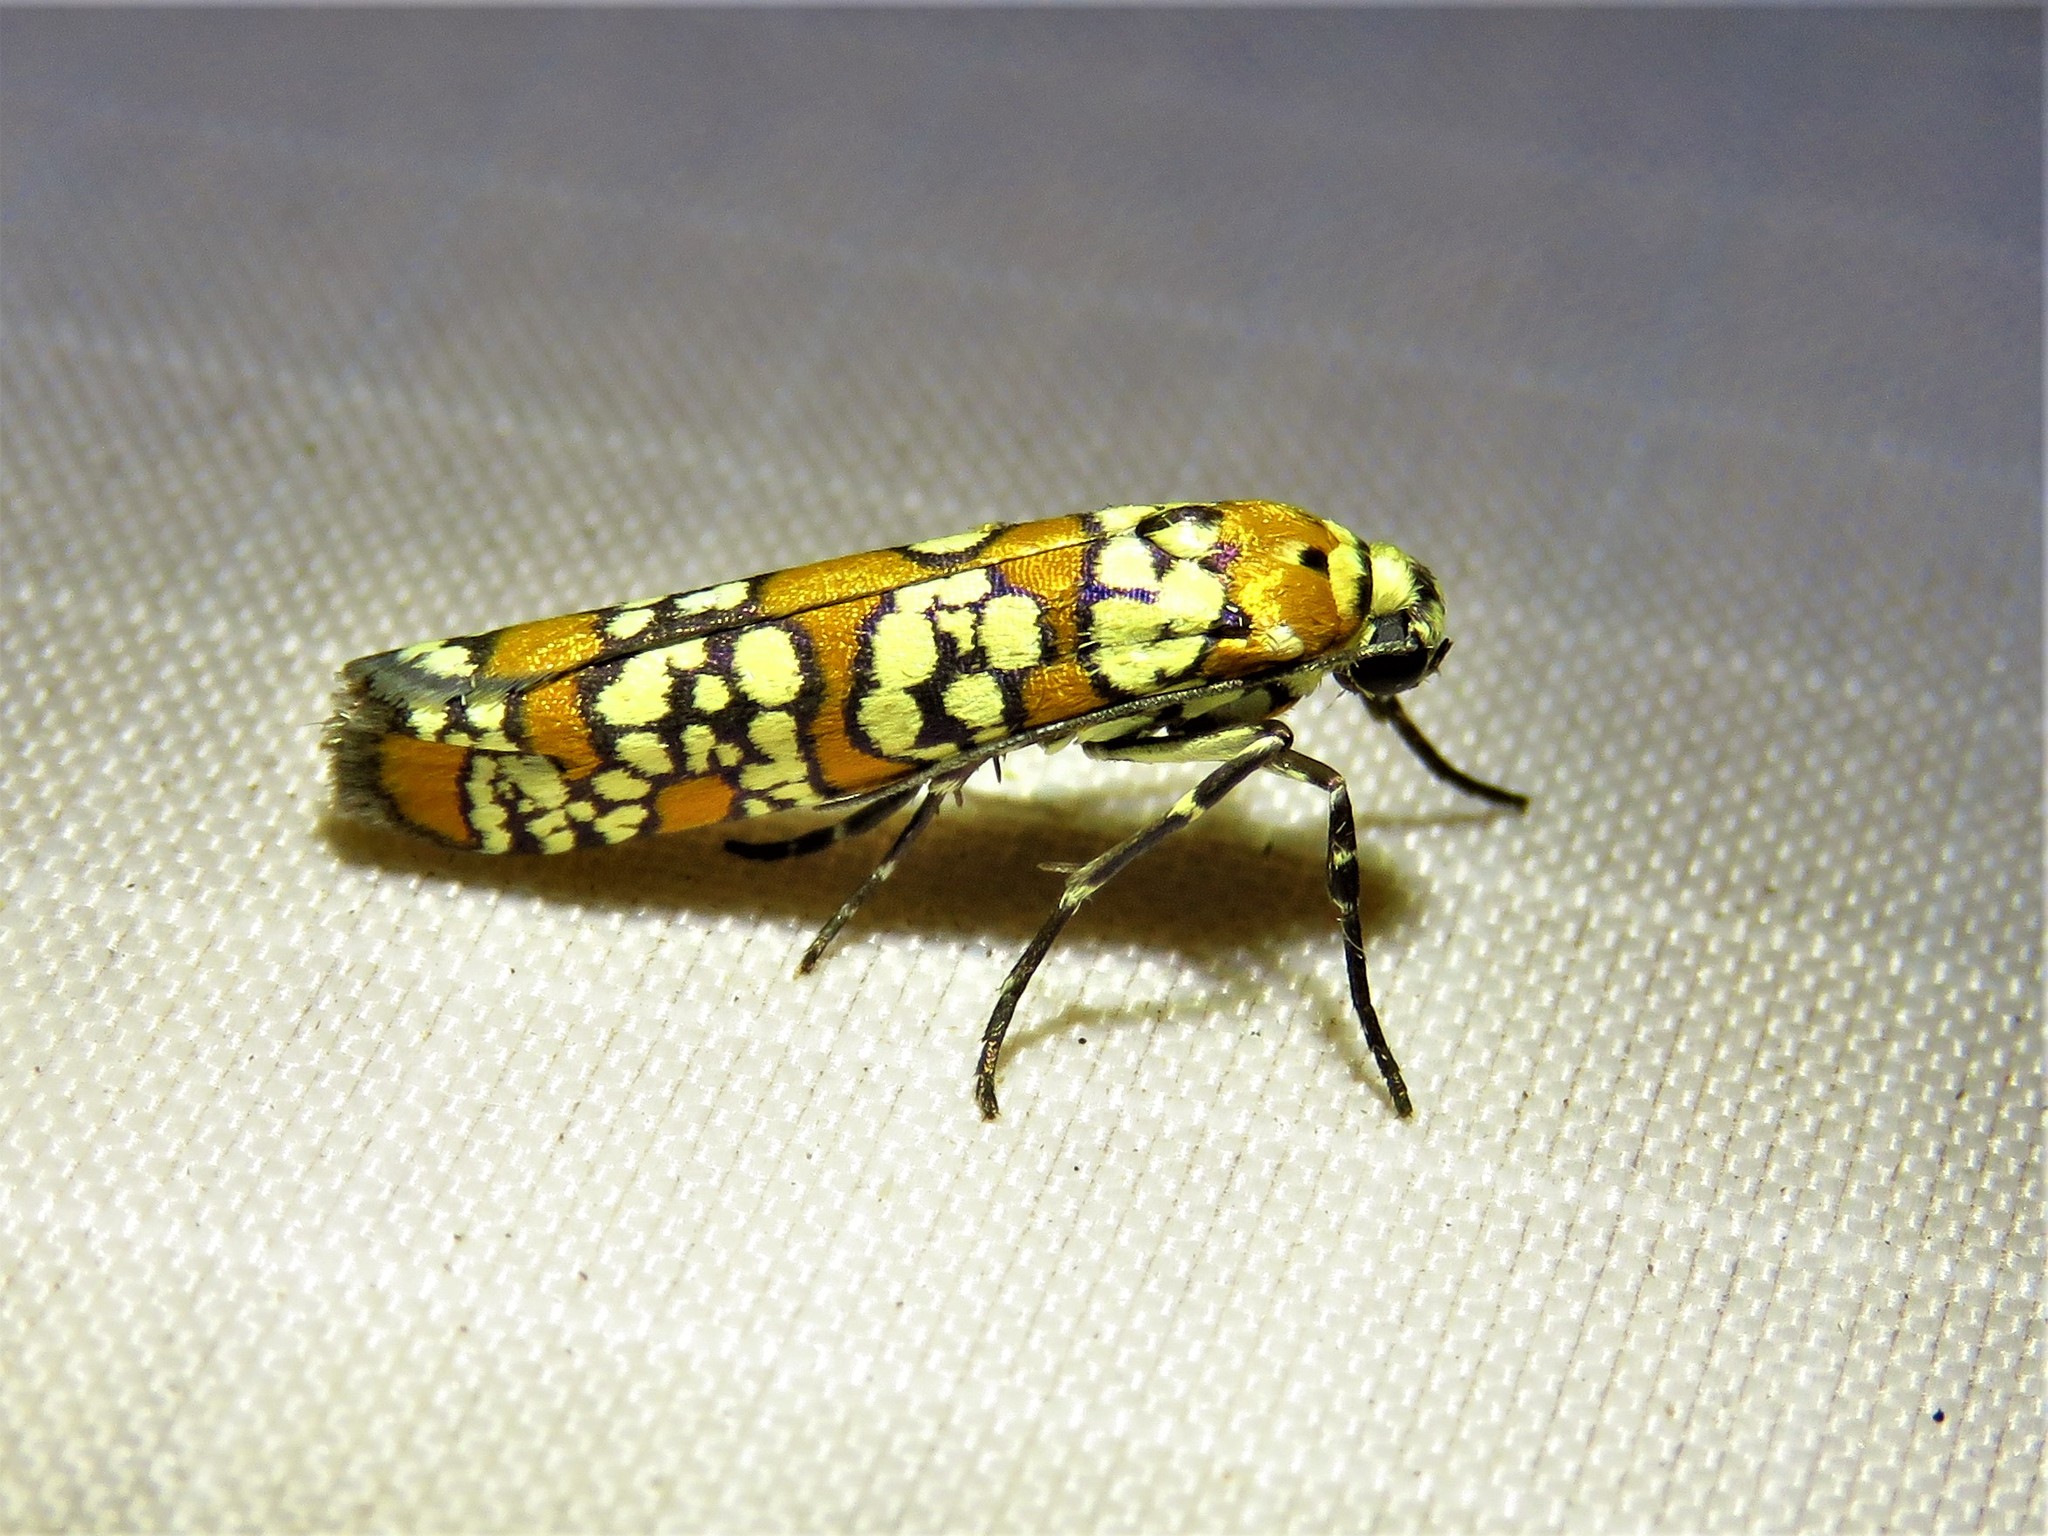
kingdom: Animalia
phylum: Arthropoda
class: Insecta
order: Lepidoptera
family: Attevidae
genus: Atteva
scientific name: Atteva punctella
